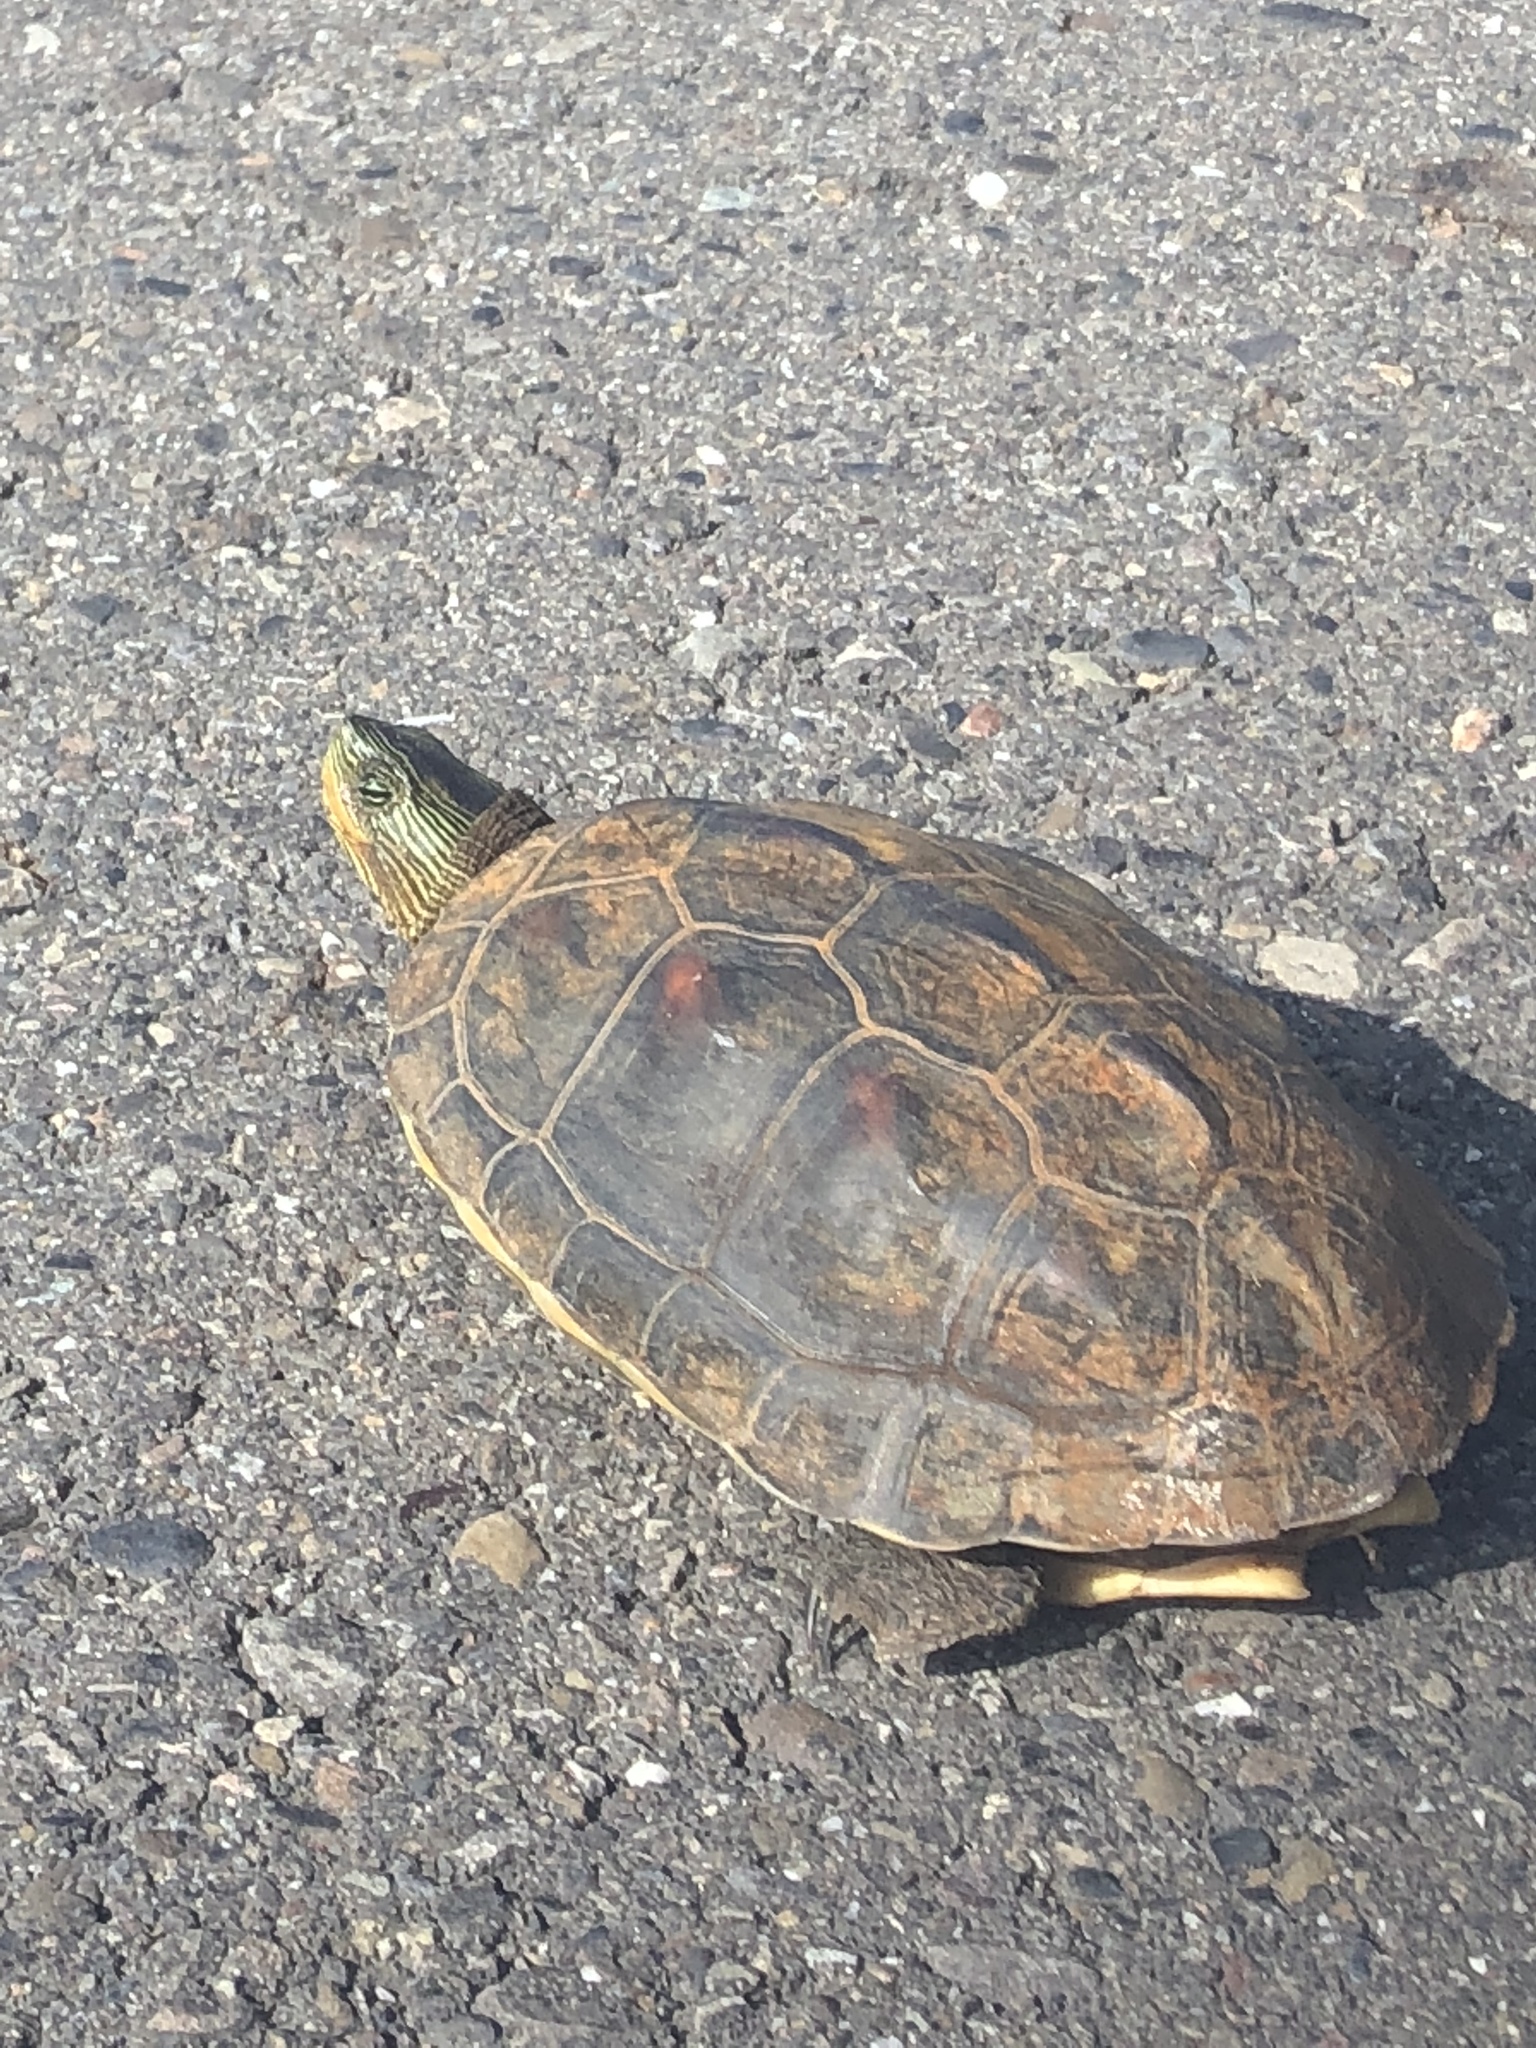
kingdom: Animalia
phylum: Chordata
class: Testudines
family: Geoemydidae
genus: Mauremys
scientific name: Mauremys sinensis
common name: Chinese stripe-necked turtle
